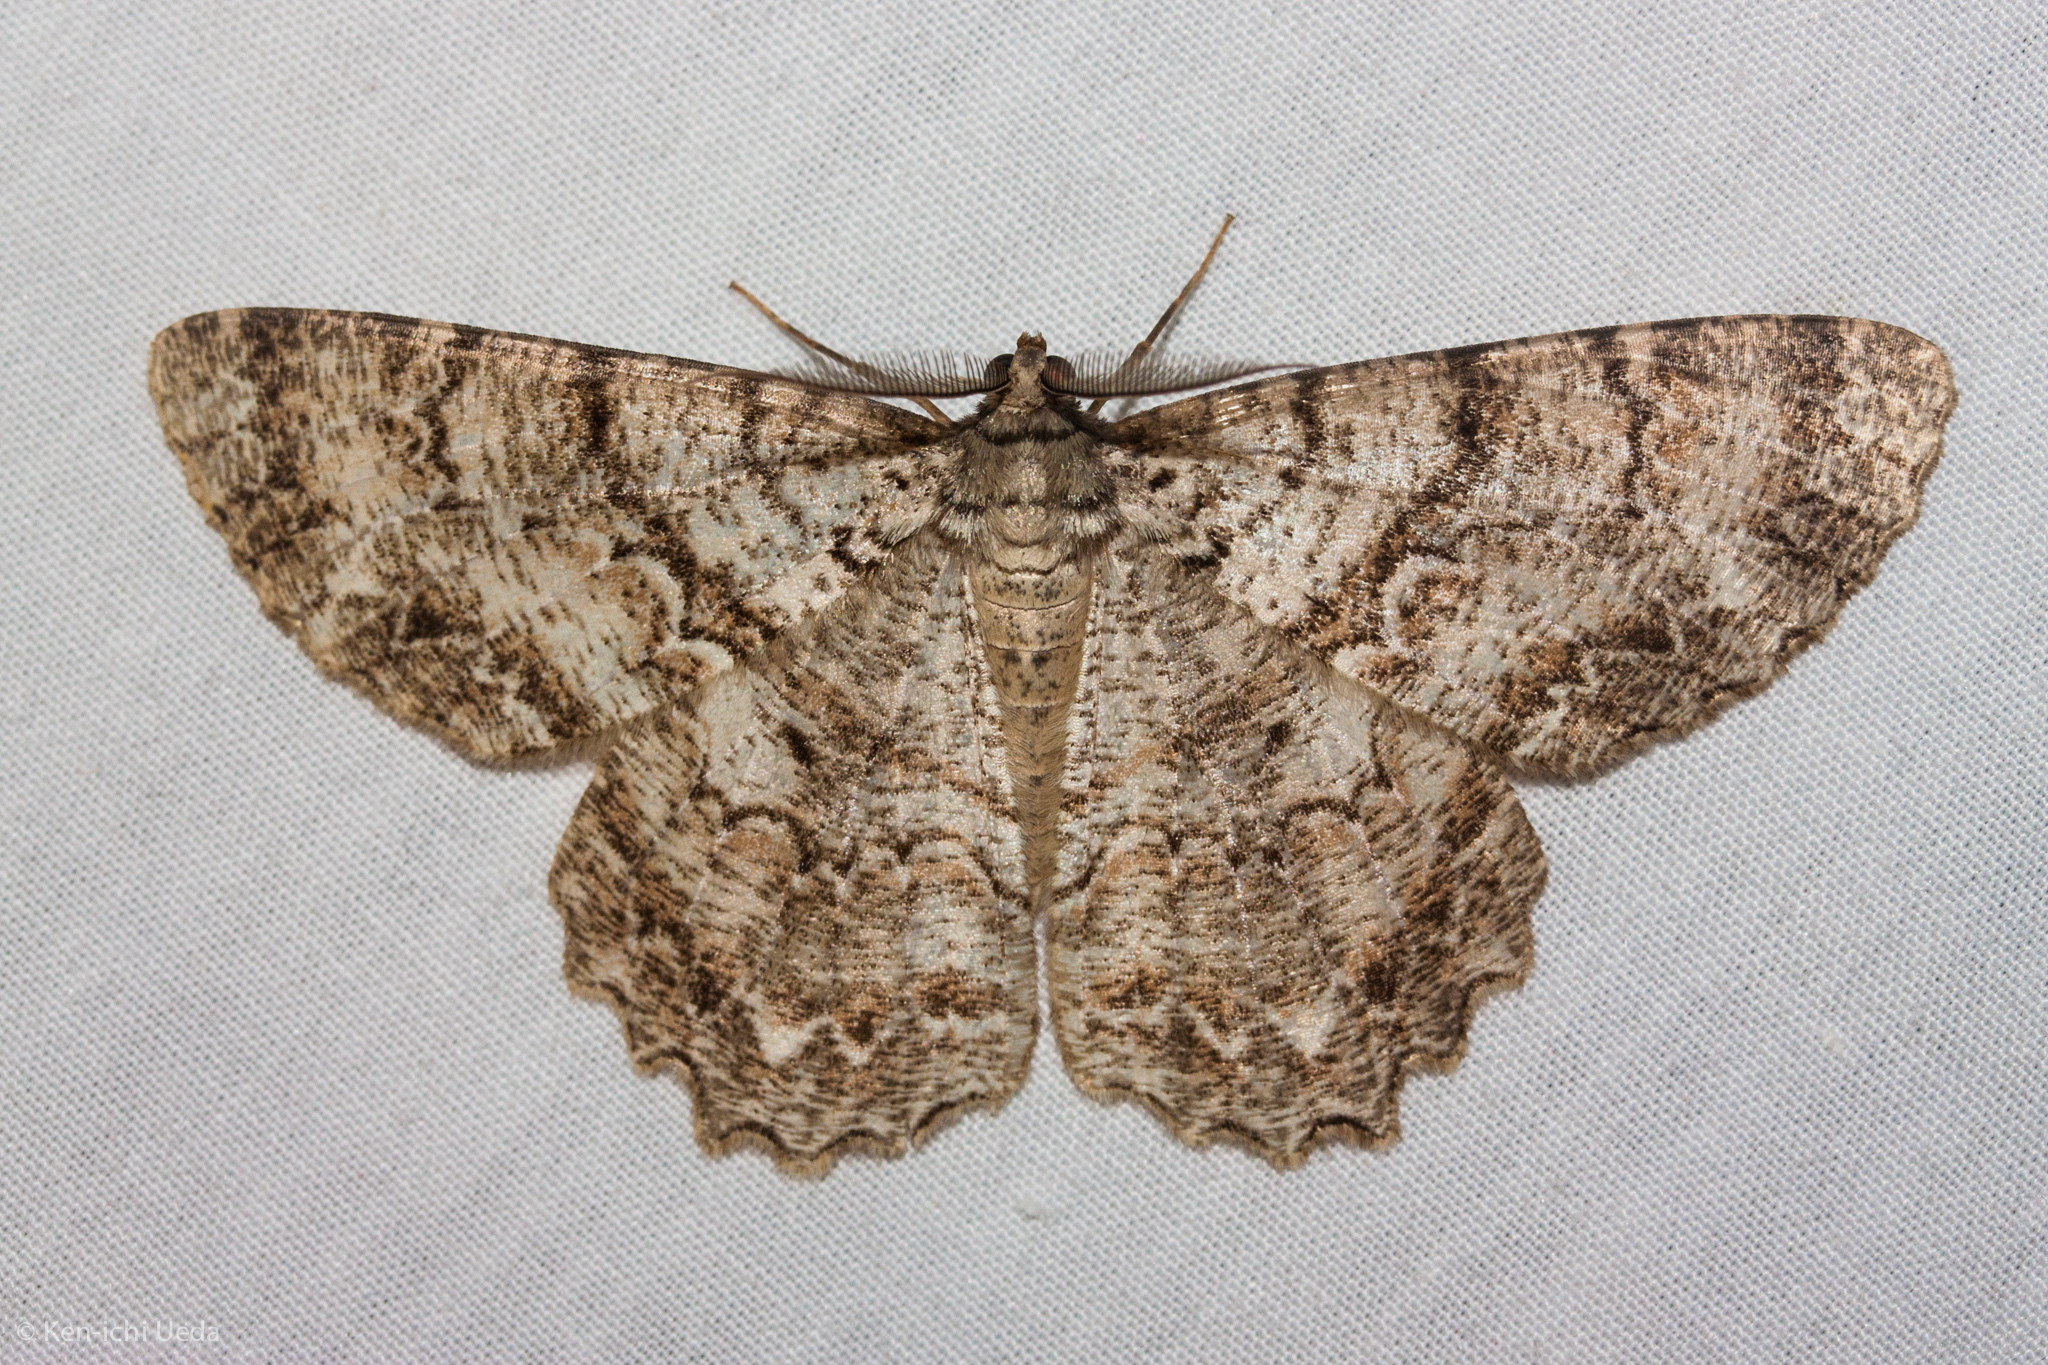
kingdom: Animalia
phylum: Arthropoda
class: Insecta
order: Lepidoptera
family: Geometridae
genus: Epimecis
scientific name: Epimecis hortaria
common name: Tulip-tree beauty
